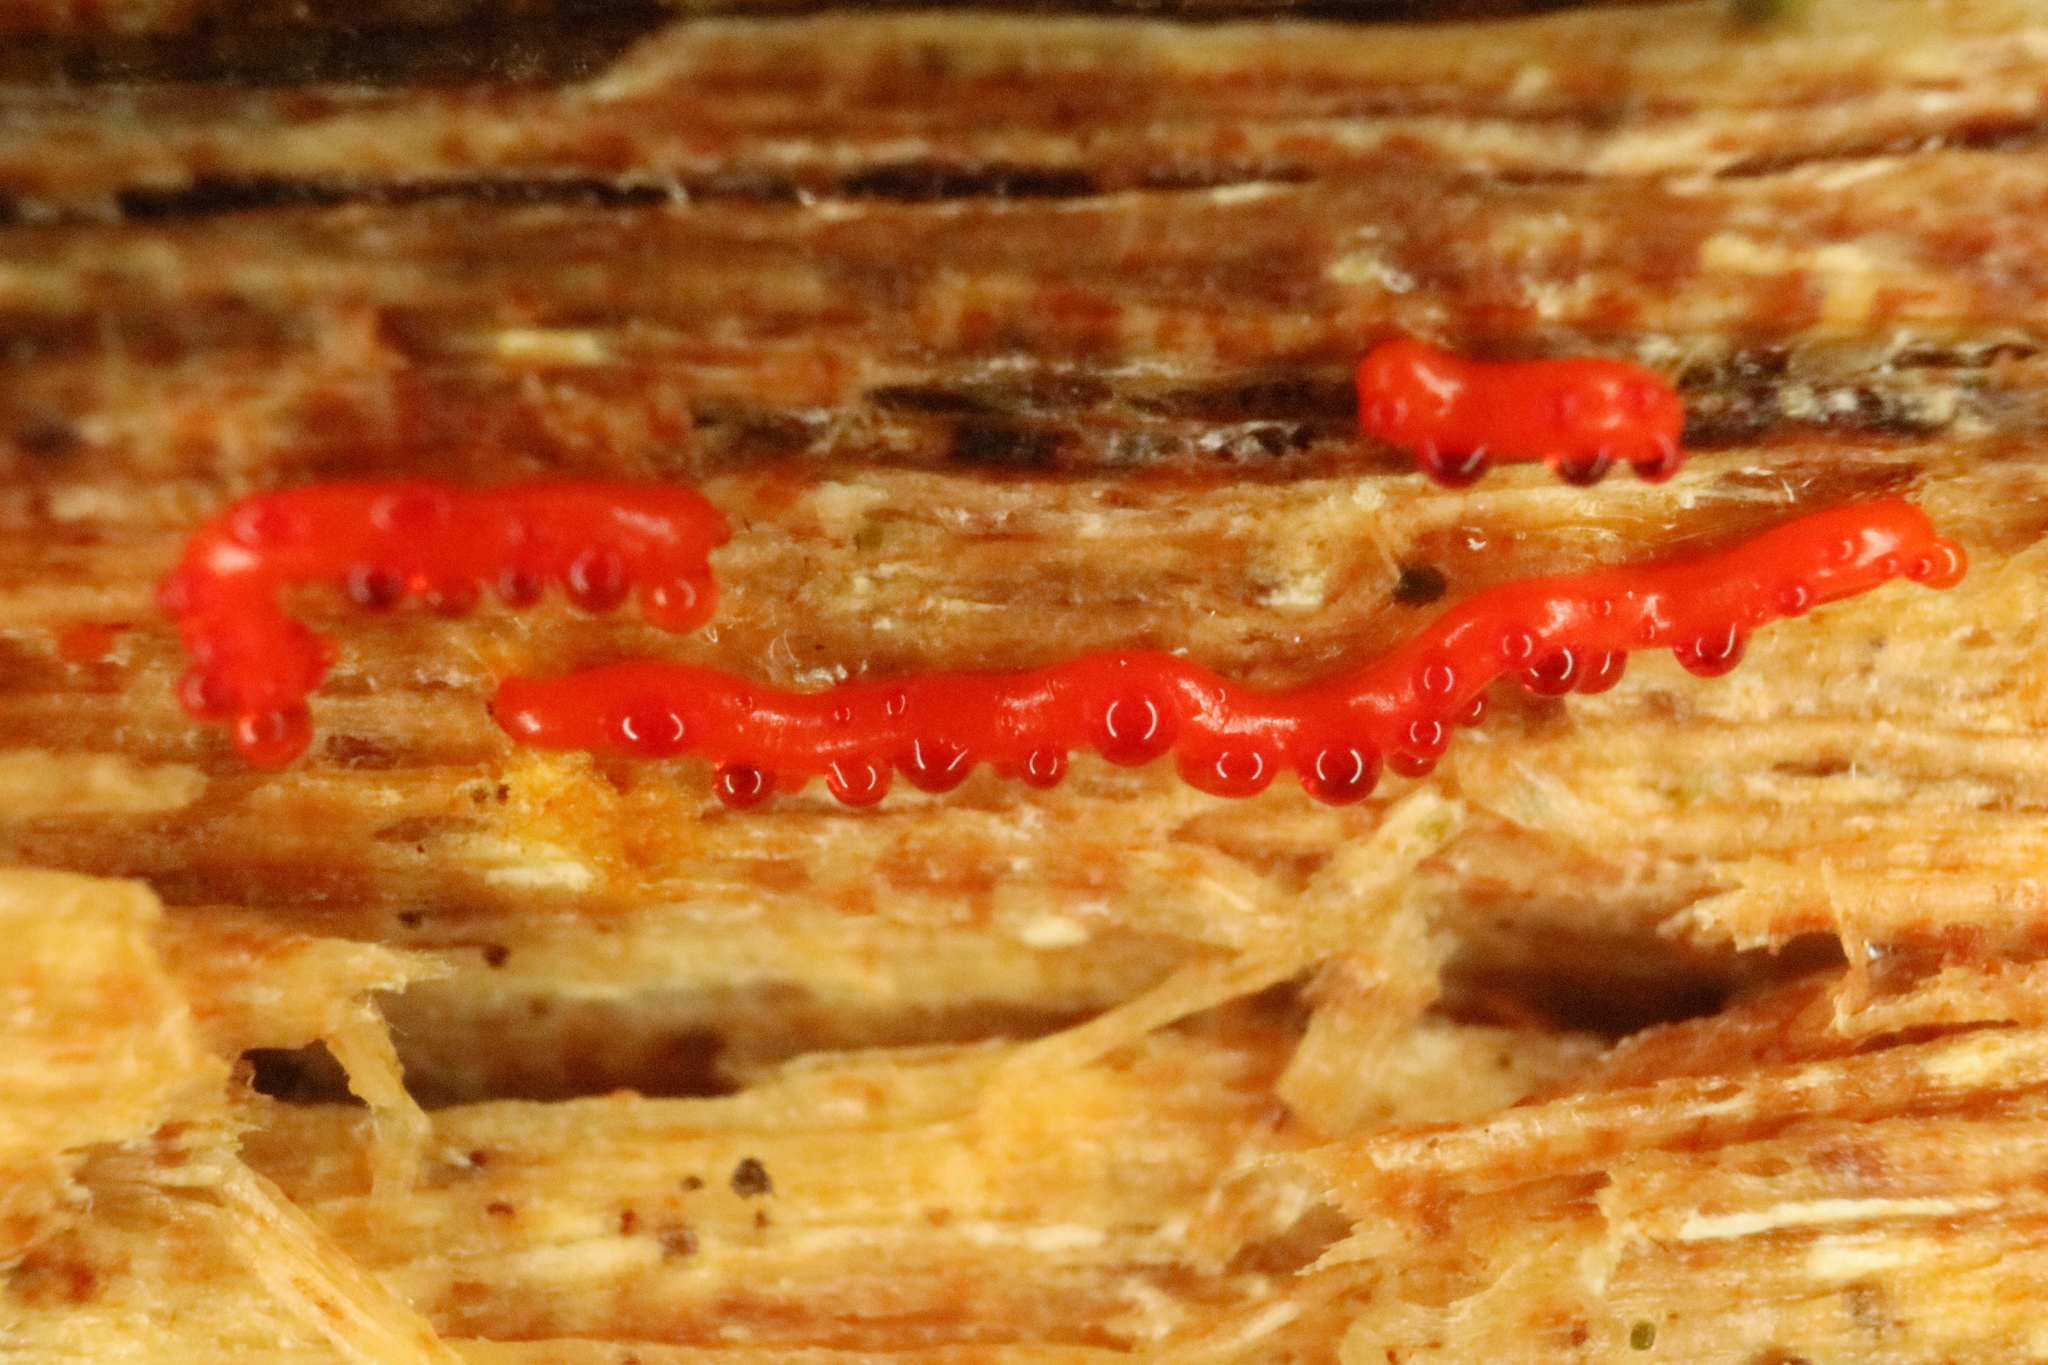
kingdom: Protozoa
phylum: Mycetozoa
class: Myxomycetes
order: Physarales
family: Physaraceae
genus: Willkommlangea
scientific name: Willkommlangea reticulata
